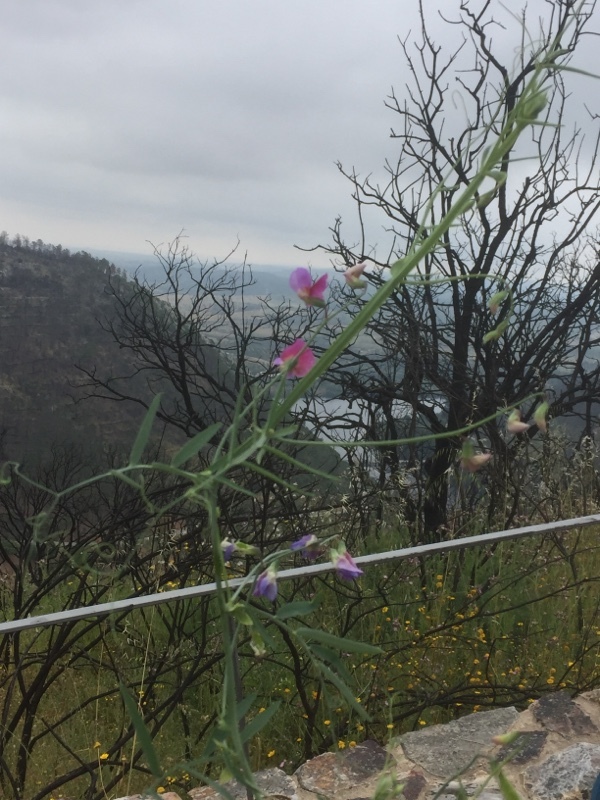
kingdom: Plantae
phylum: Tracheophyta
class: Magnoliopsida
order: Fabales
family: Fabaceae
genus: Lathyrus
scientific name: Lathyrus clymenum
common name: Spanish vetchling
